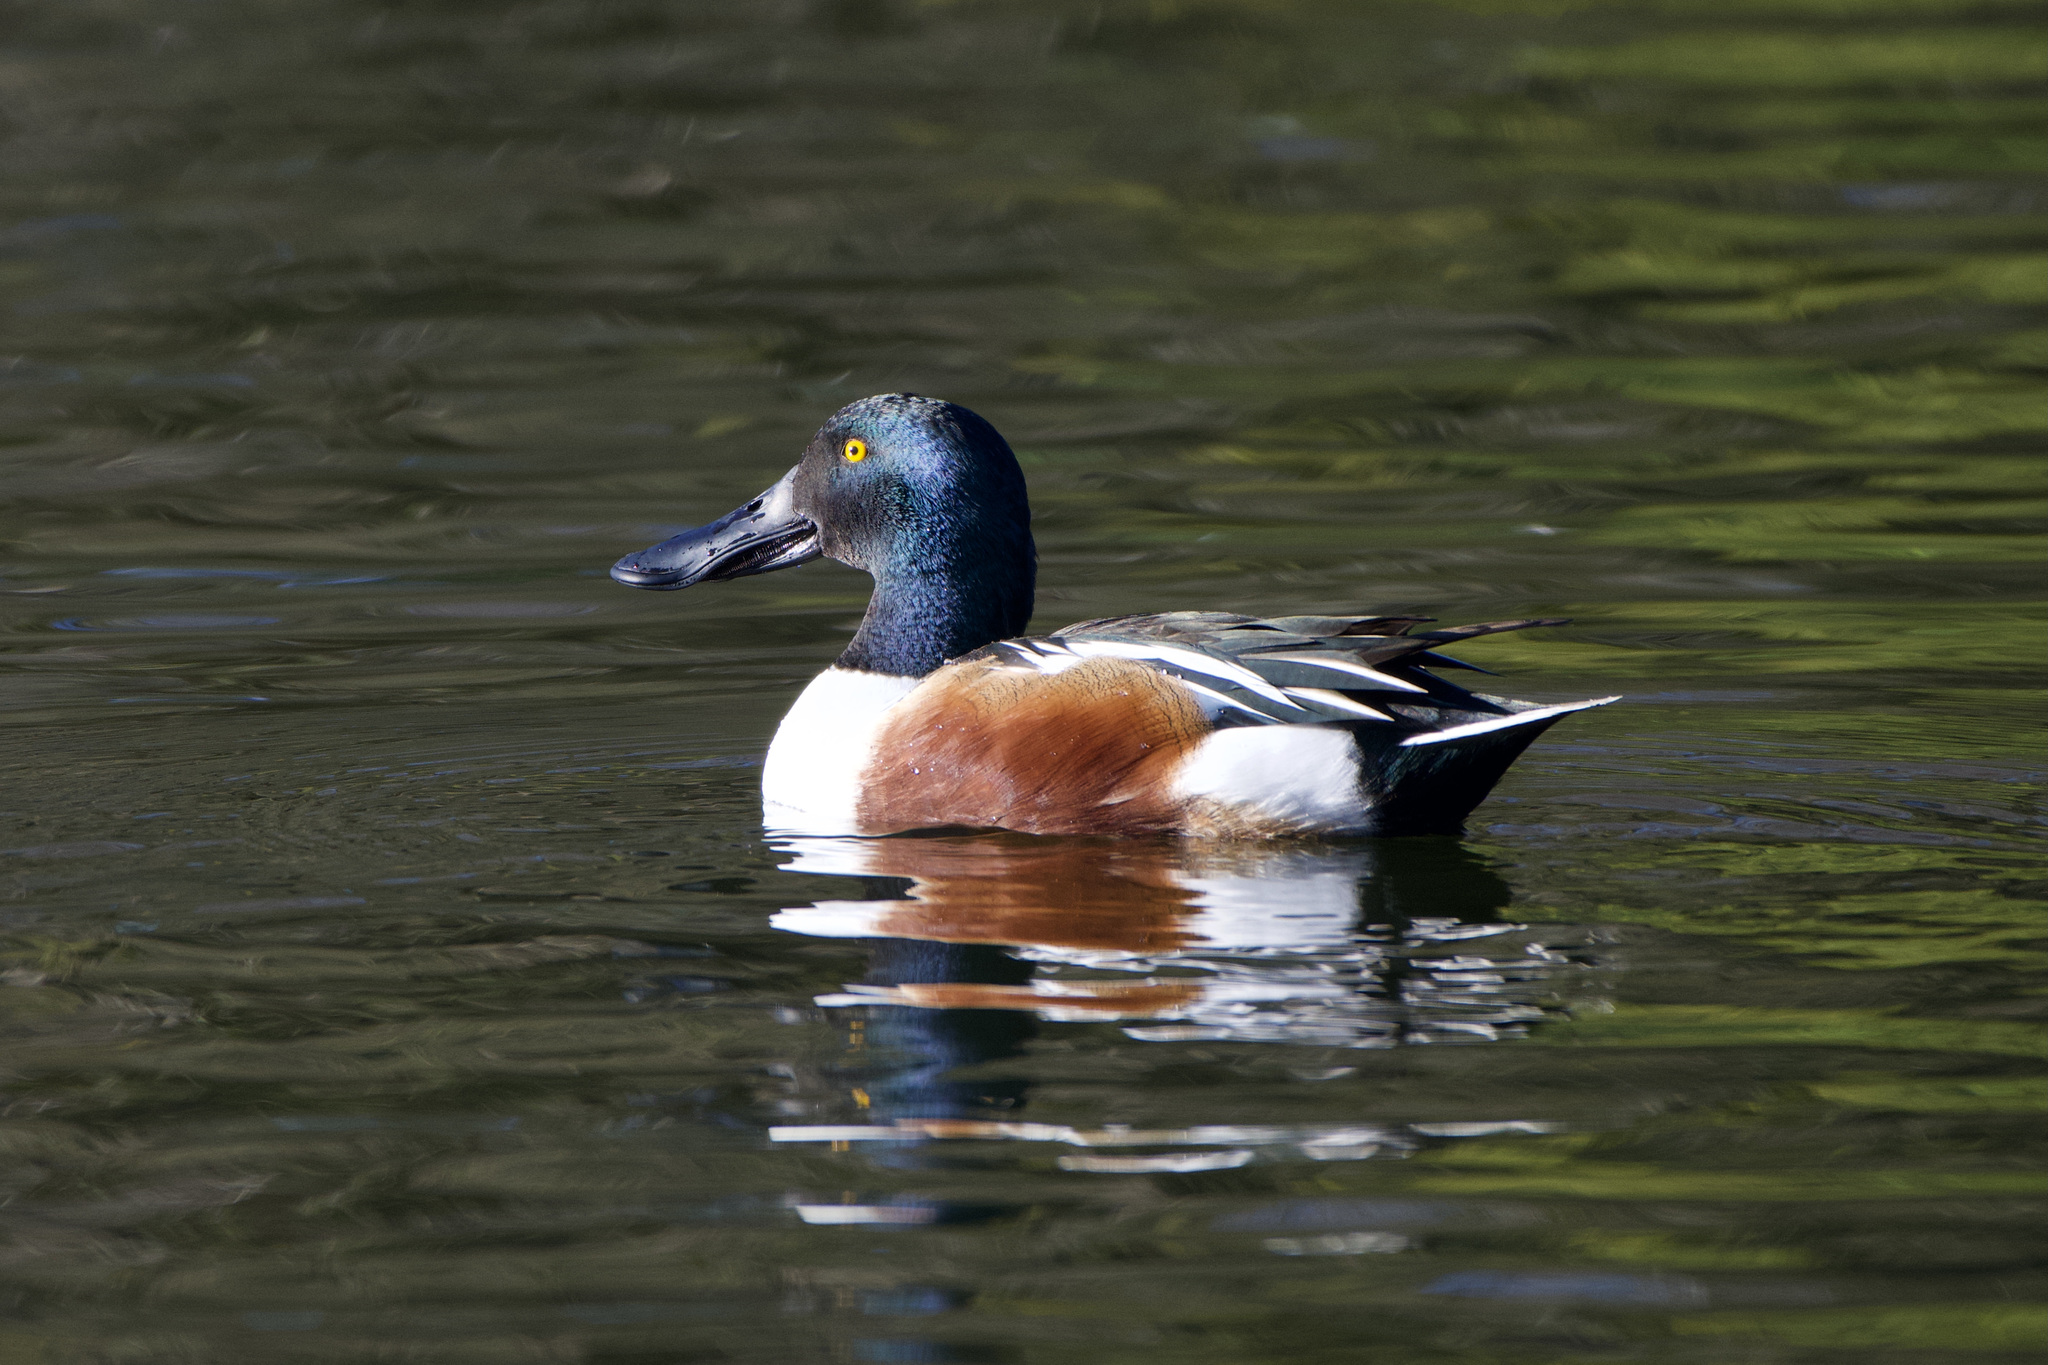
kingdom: Animalia
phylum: Chordata
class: Aves
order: Anseriformes
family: Anatidae
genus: Spatula
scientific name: Spatula clypeata
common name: Northern shoveler
